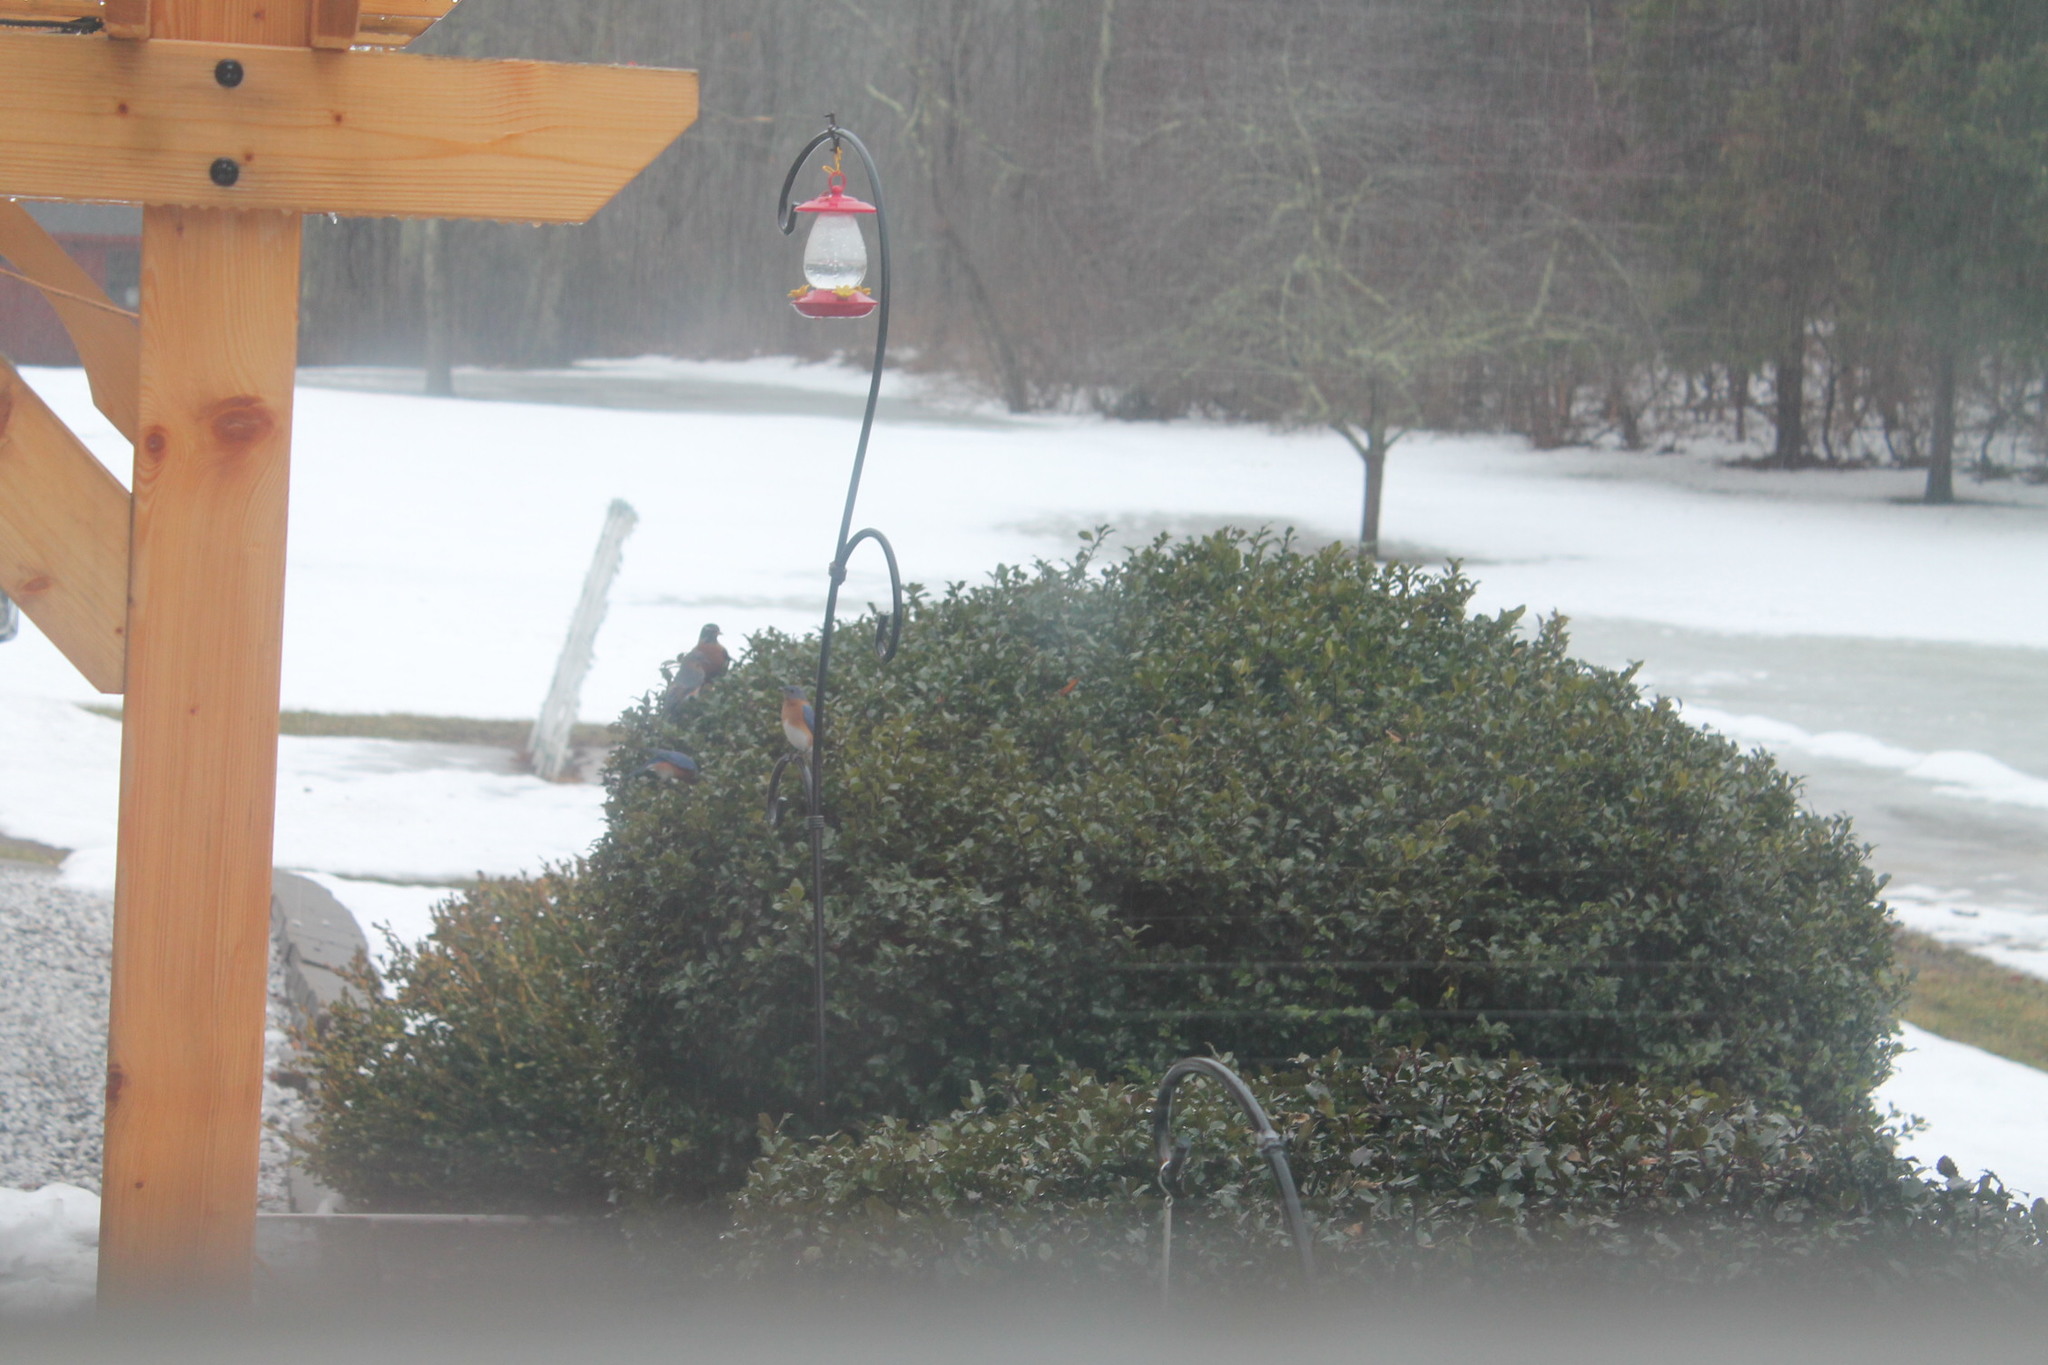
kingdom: Animalia
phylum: Chordata
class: Aves
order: Passeriformes
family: Turdidae
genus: Sialia
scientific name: Sialia sialis
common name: Eastern bluebird
